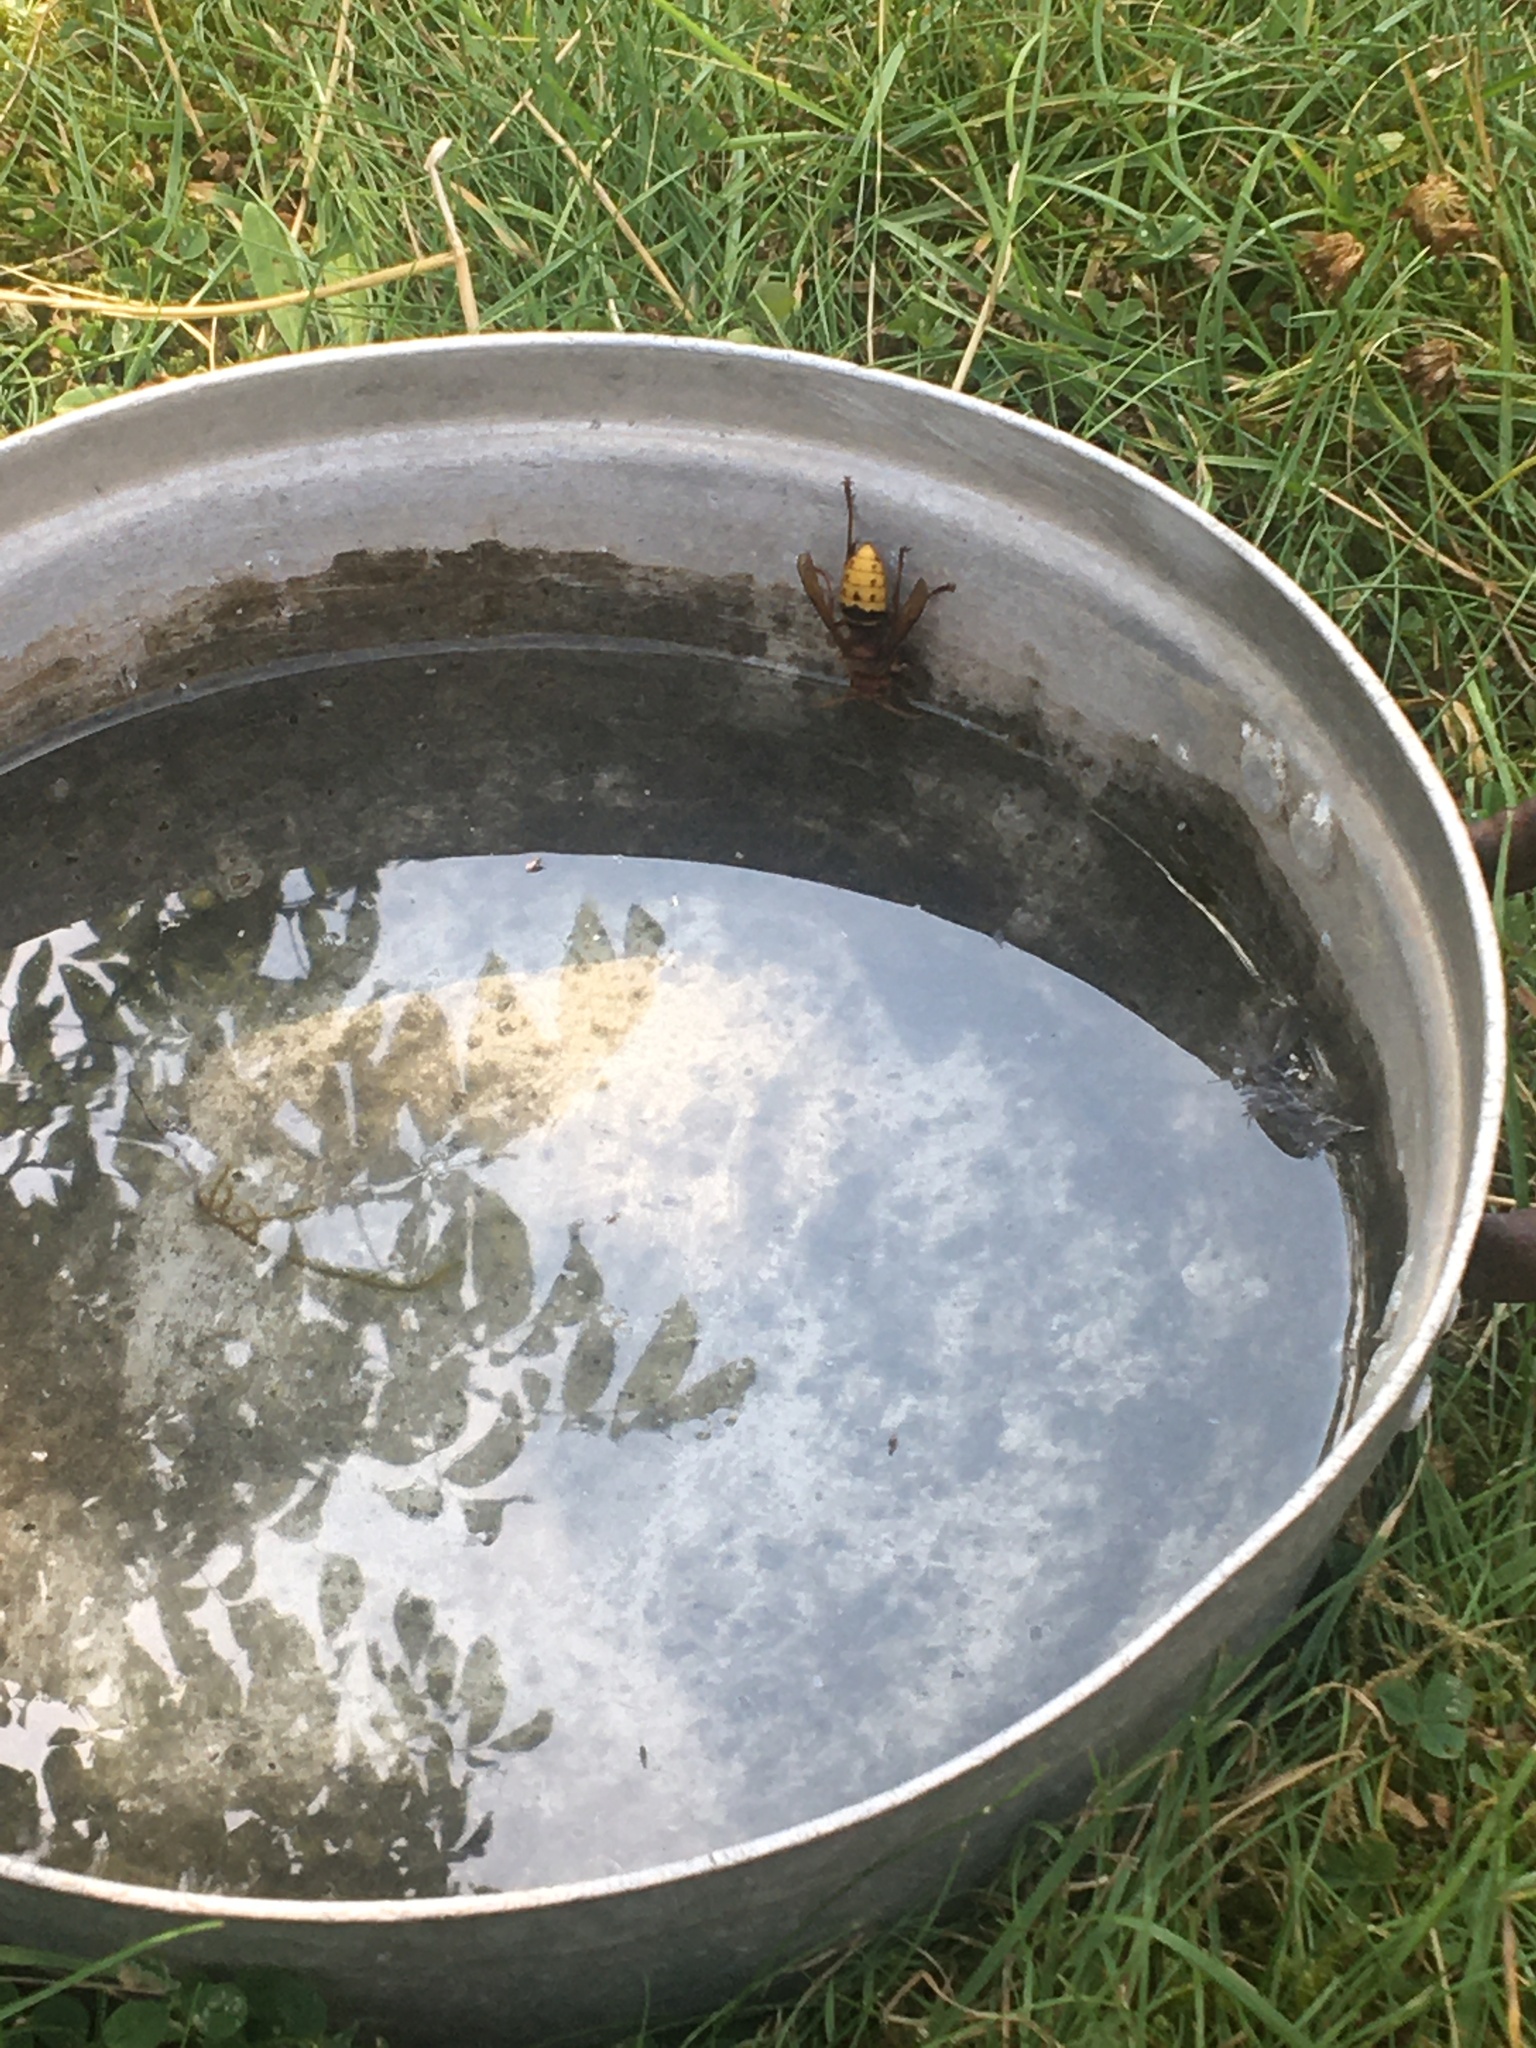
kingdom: Animalia
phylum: Arthropoda
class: Insecta
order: Hymenoptera
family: Vespidae
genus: Vespa
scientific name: Vespa crabro
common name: Hornet
